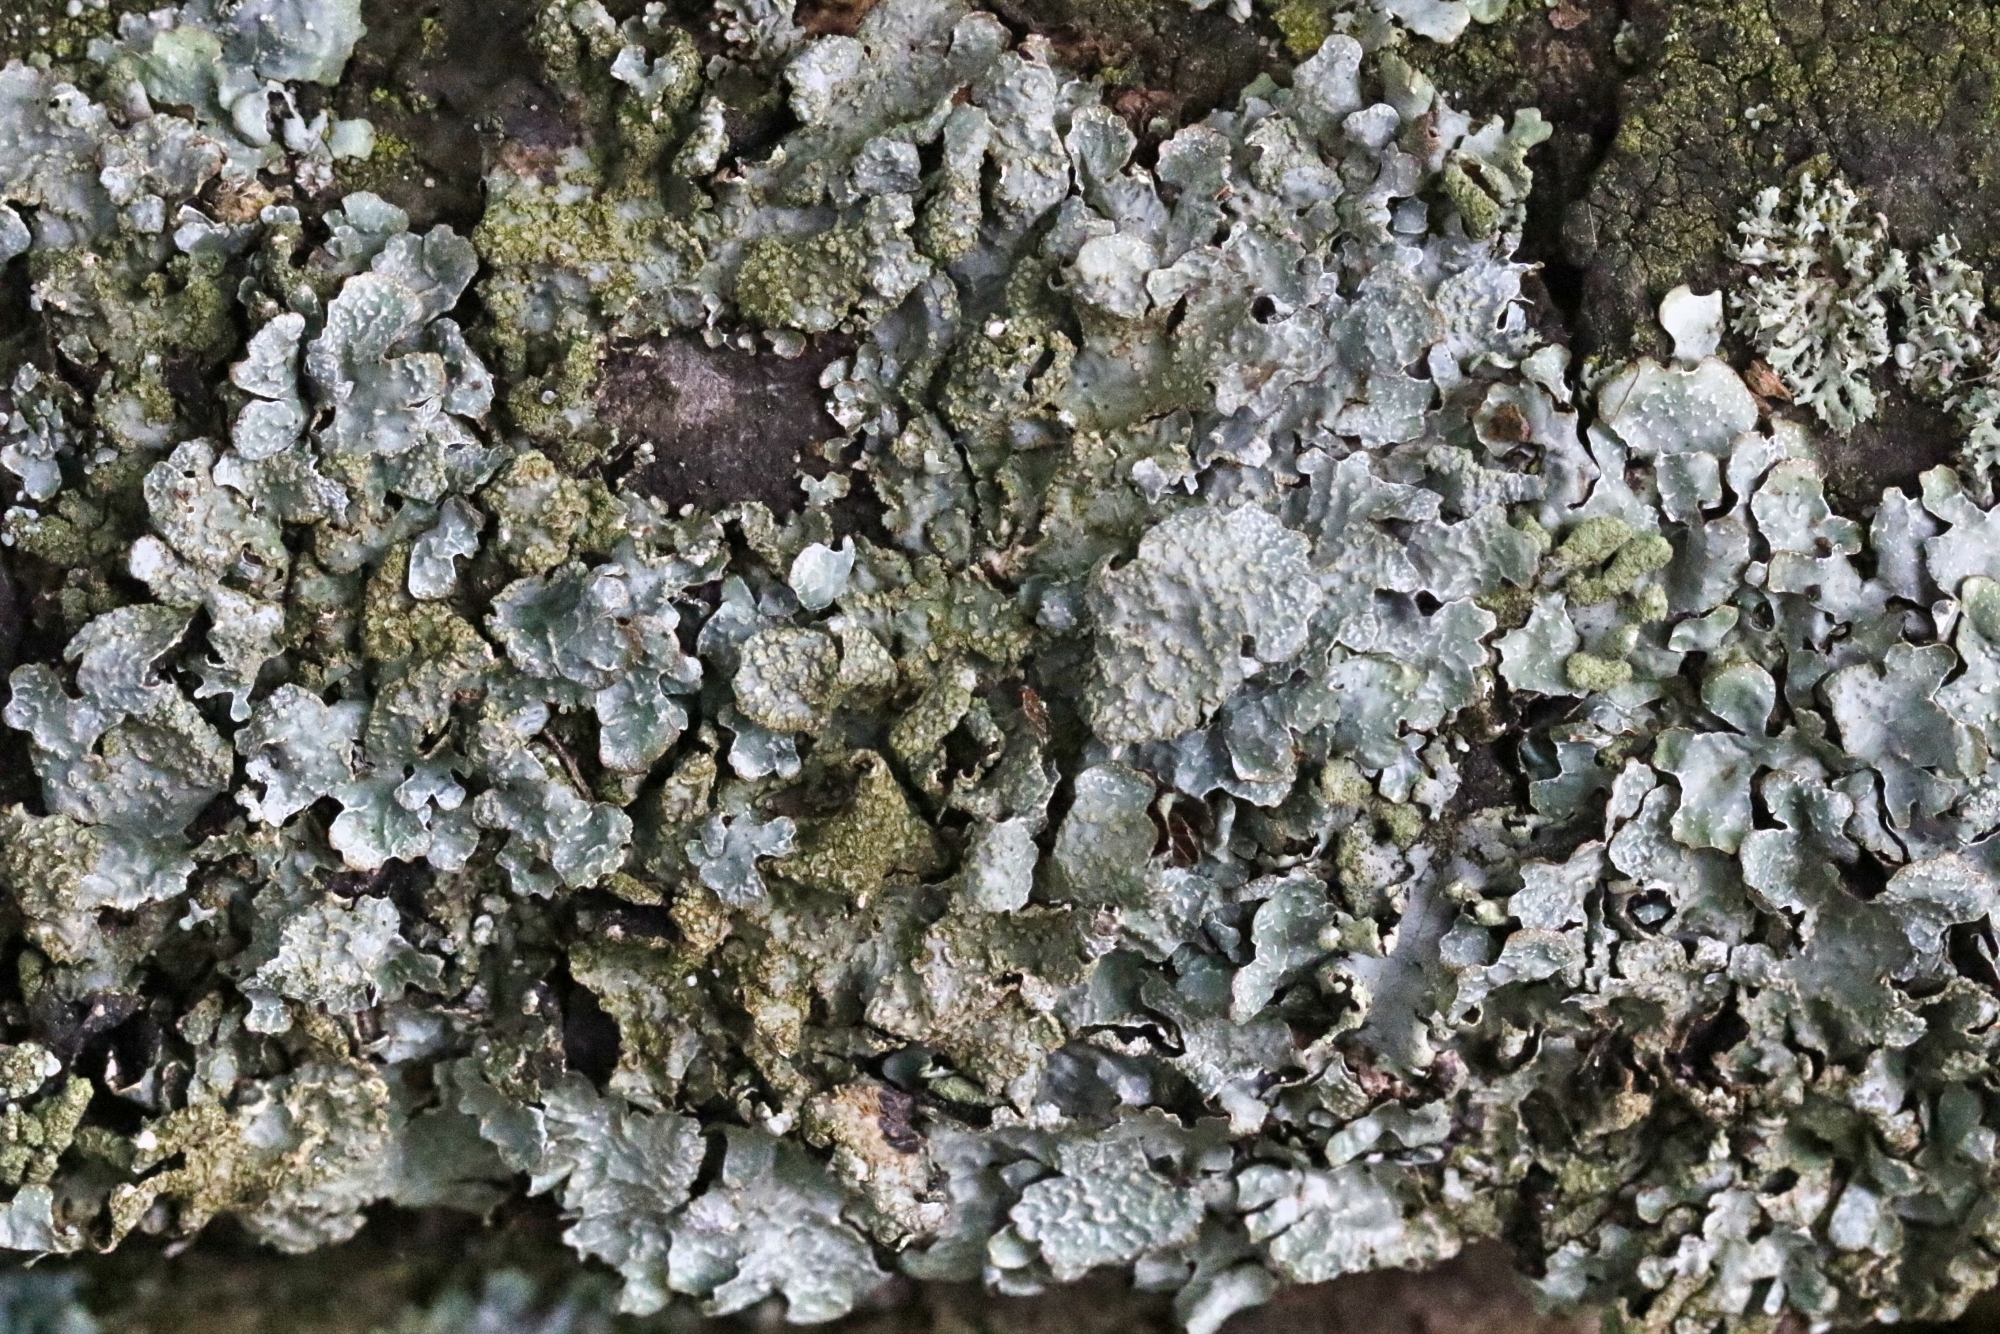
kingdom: Fungi
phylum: Ascomycota
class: Lecanoromycetes
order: Lecanorales
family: Parmeliaceae
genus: Parmelia
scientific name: Parmelia sulcata
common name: Netted shield lichen
